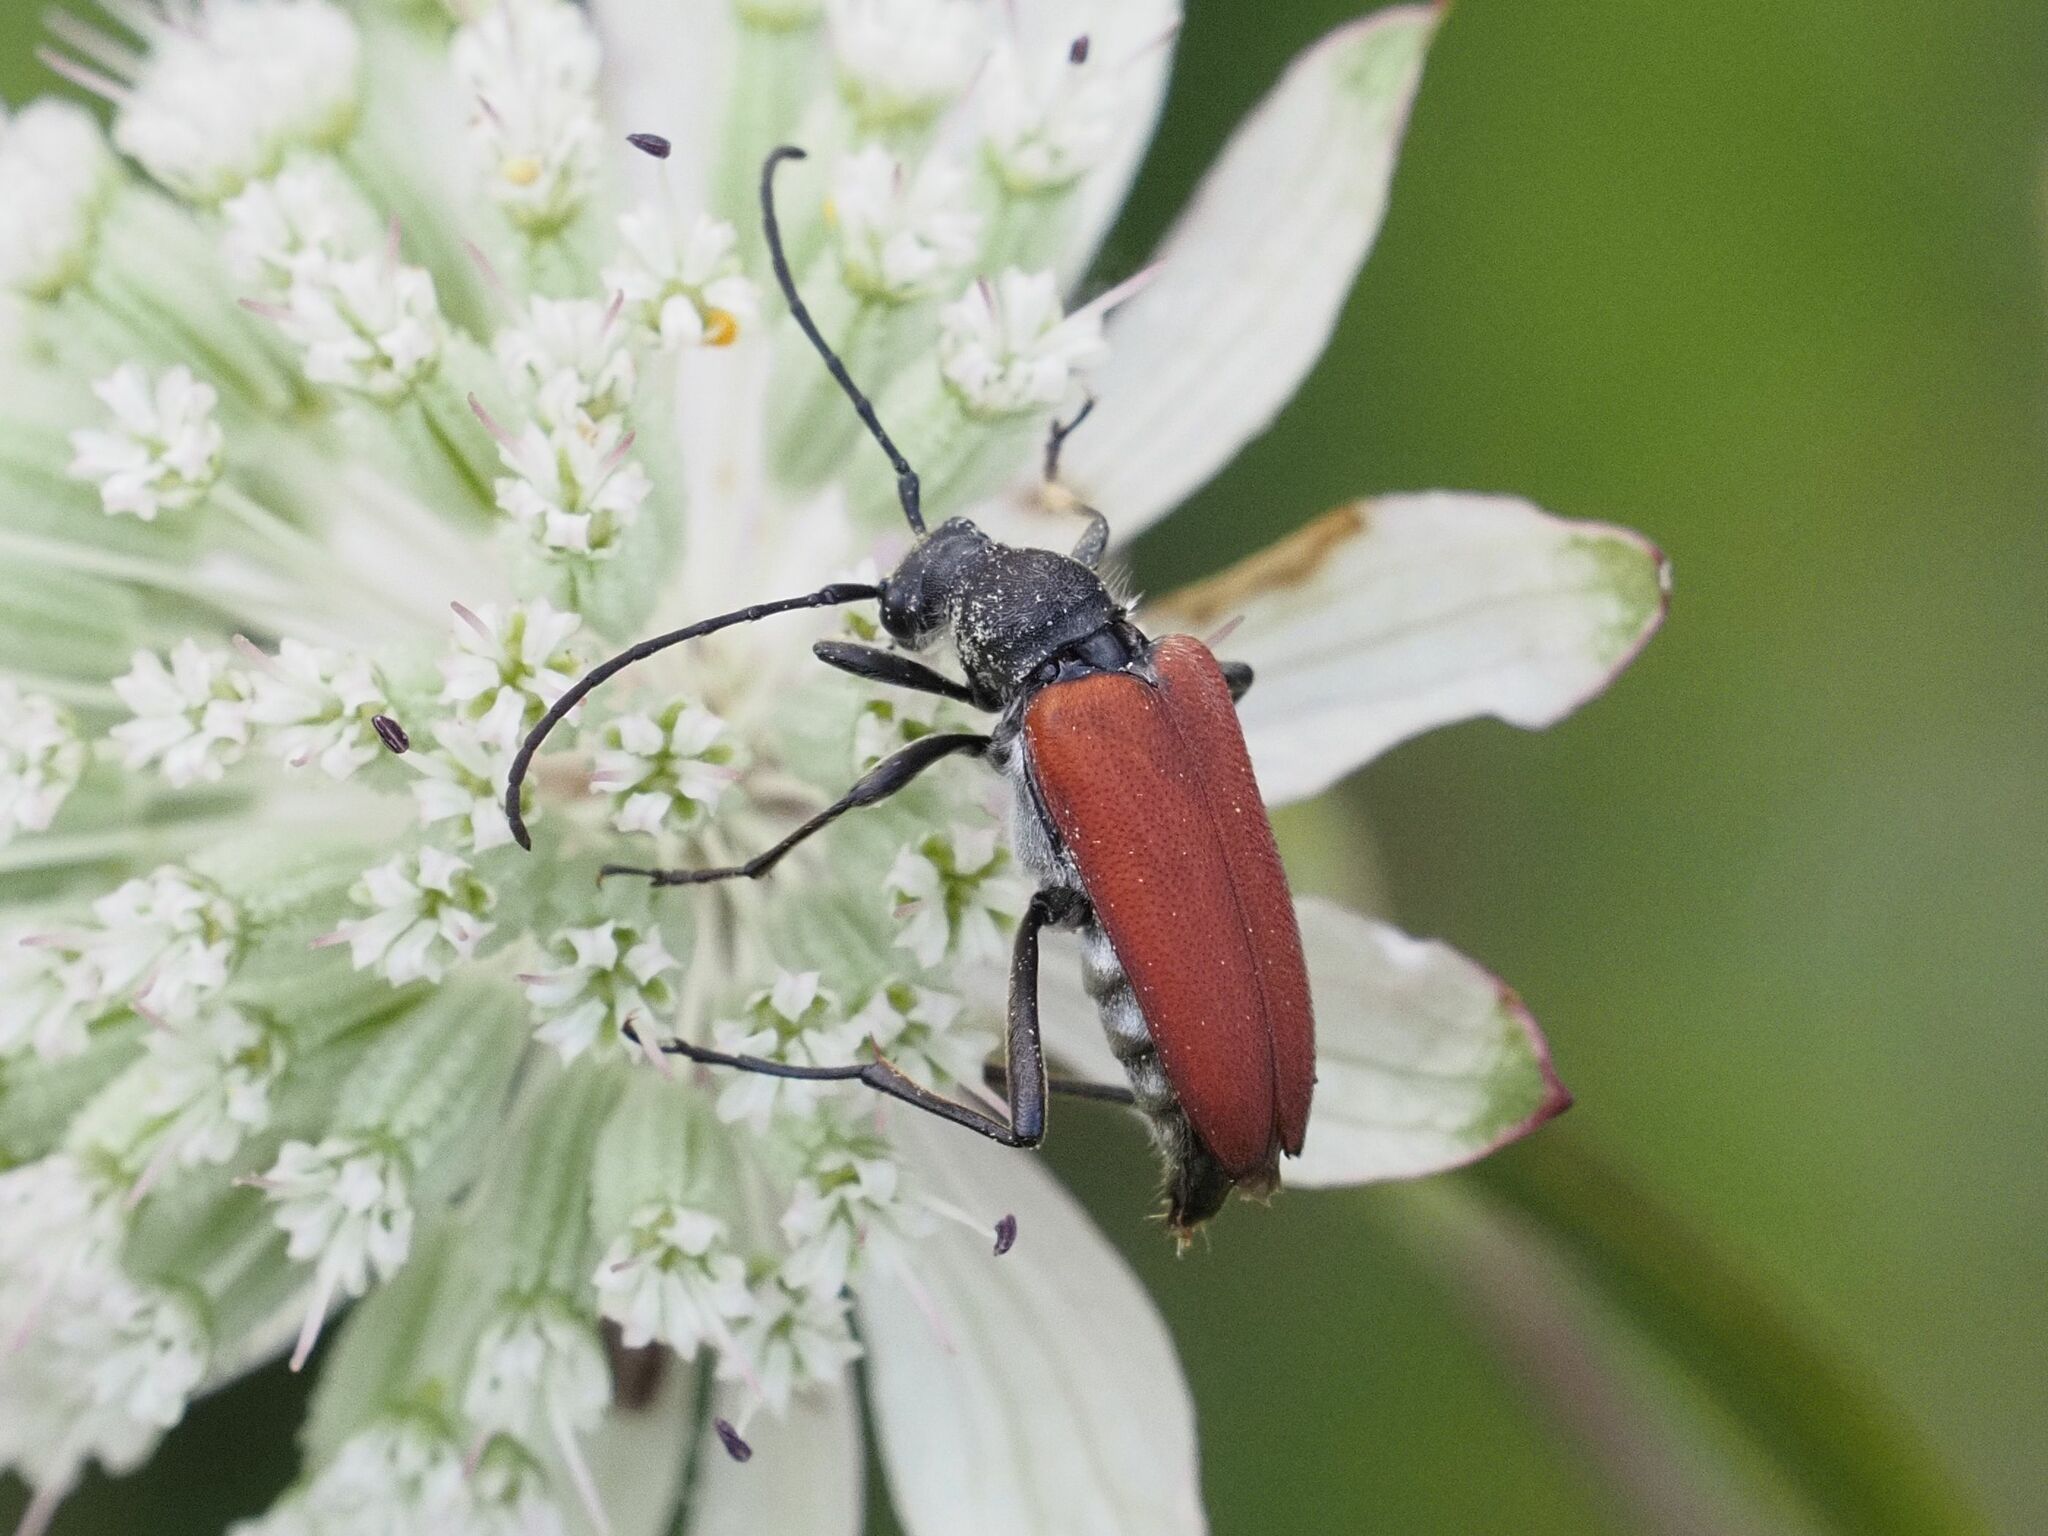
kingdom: Animalia
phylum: Arthropoda
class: Insecta
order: Coleoptera
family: Cerambycidae
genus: Anastrangalia
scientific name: Anastrangalia sanguinolenta
